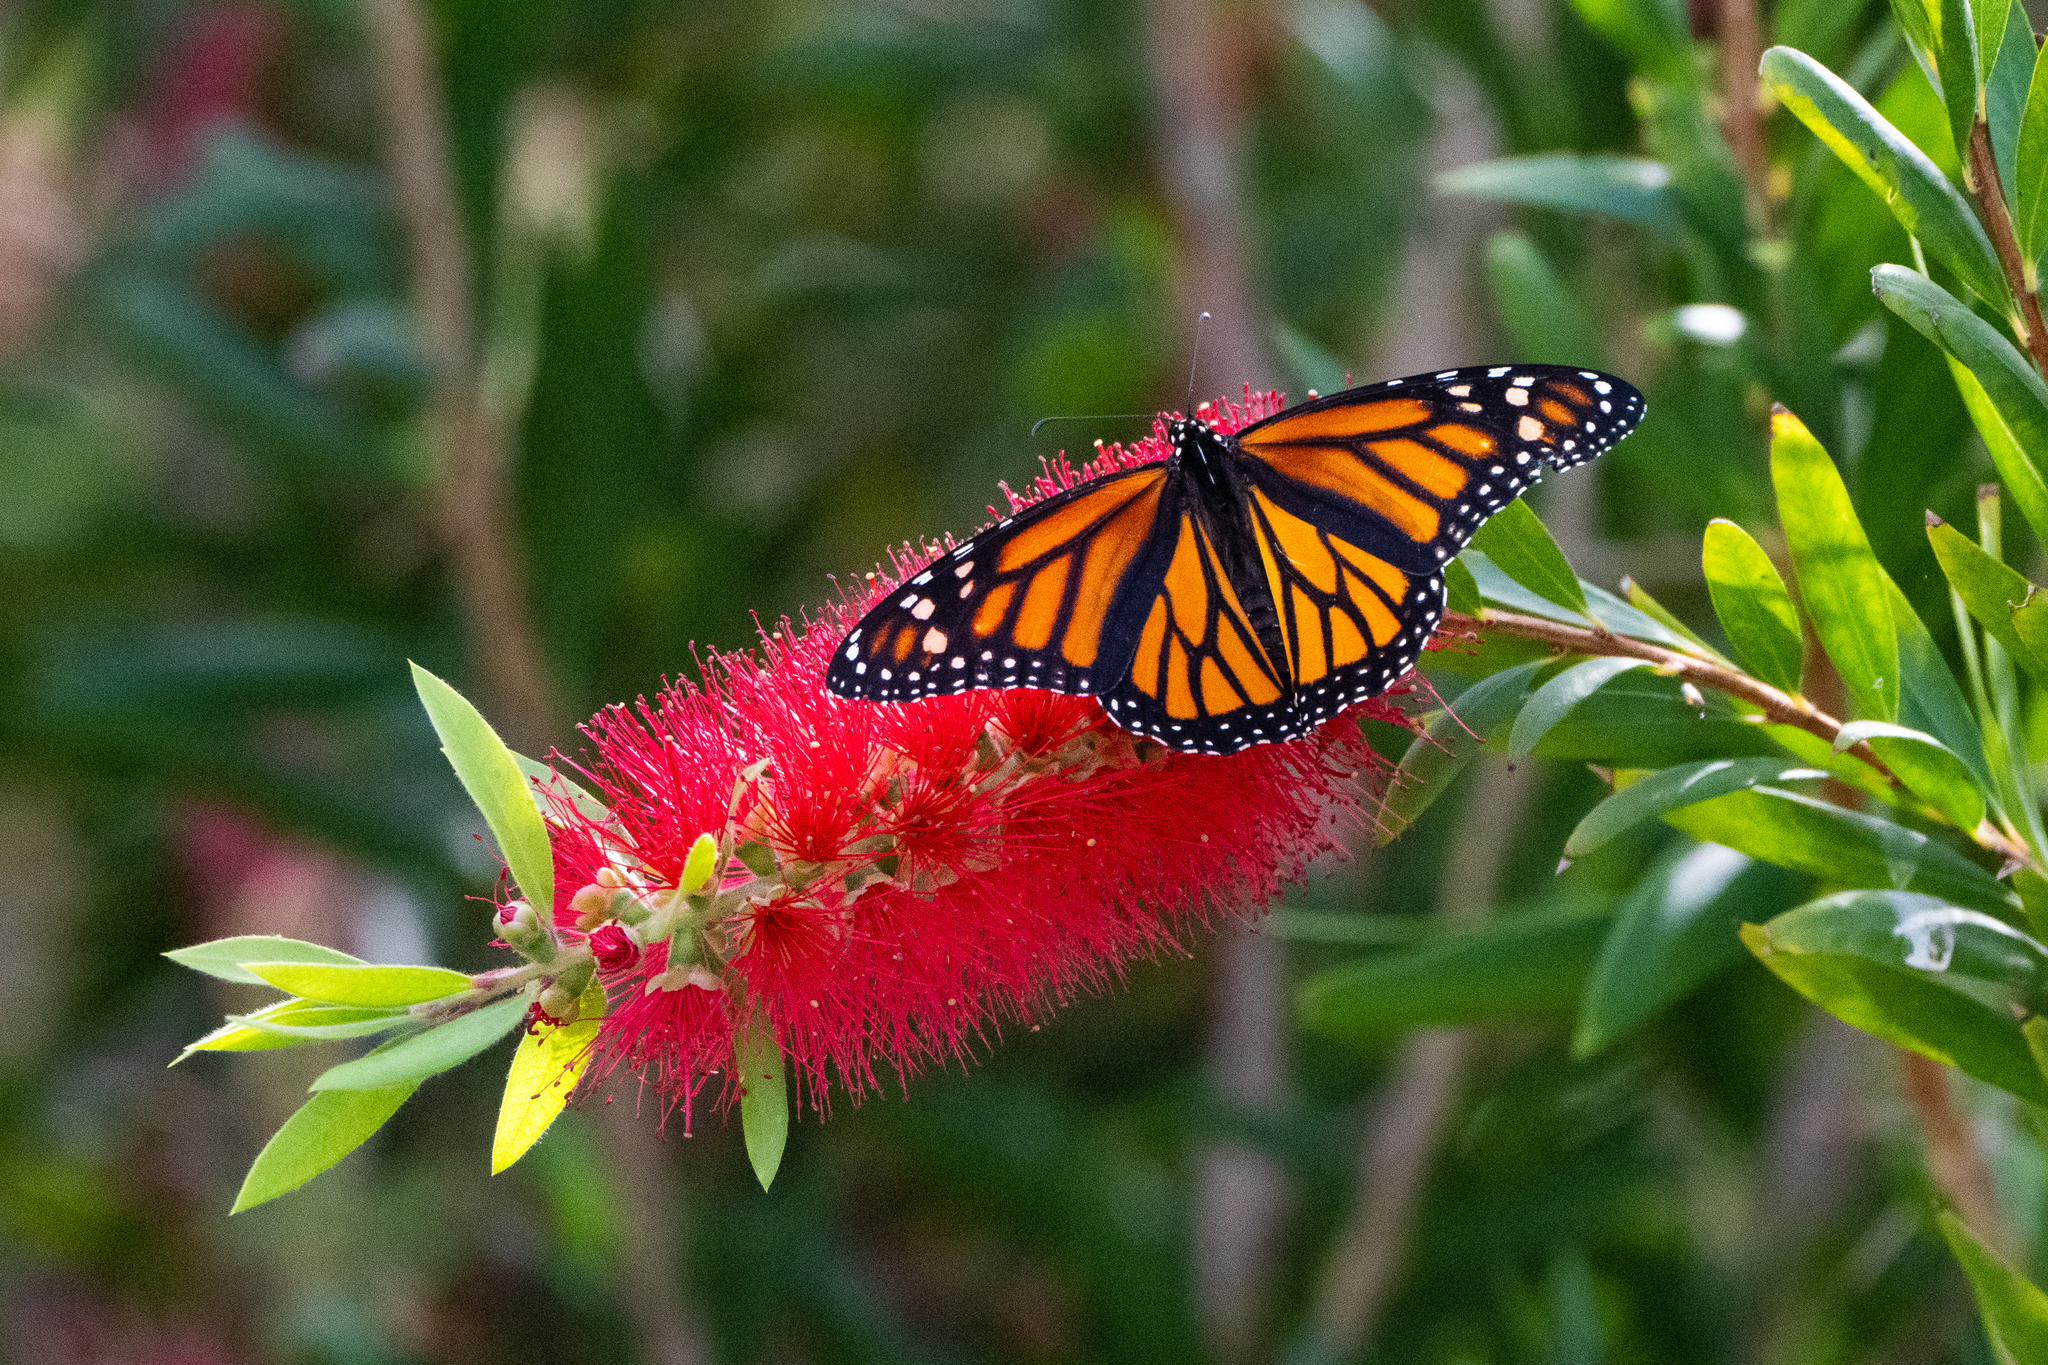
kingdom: Animalia
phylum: Arthropoda
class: Insecta
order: Lepidoptera
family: Nymphalidae
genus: Danaus
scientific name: Danaus plexippus
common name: Monarch
